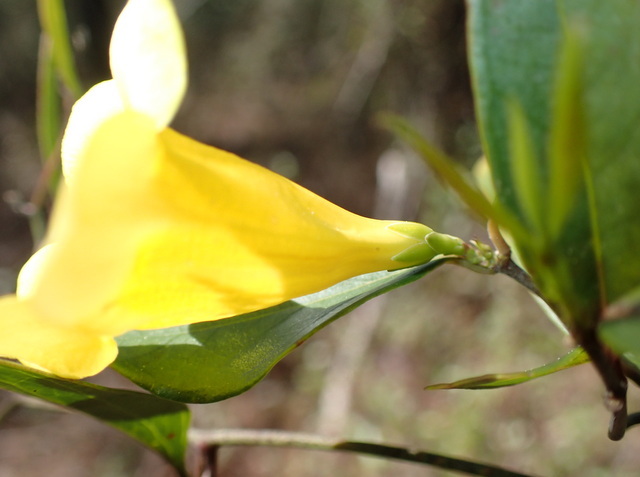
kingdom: Plantae
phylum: Tracheophyta
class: Magnoliopsida
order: Gentianales
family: Gelsemiaceae
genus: Gelsemium
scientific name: Gelsemium sempervirens
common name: Carolina-jasmine
